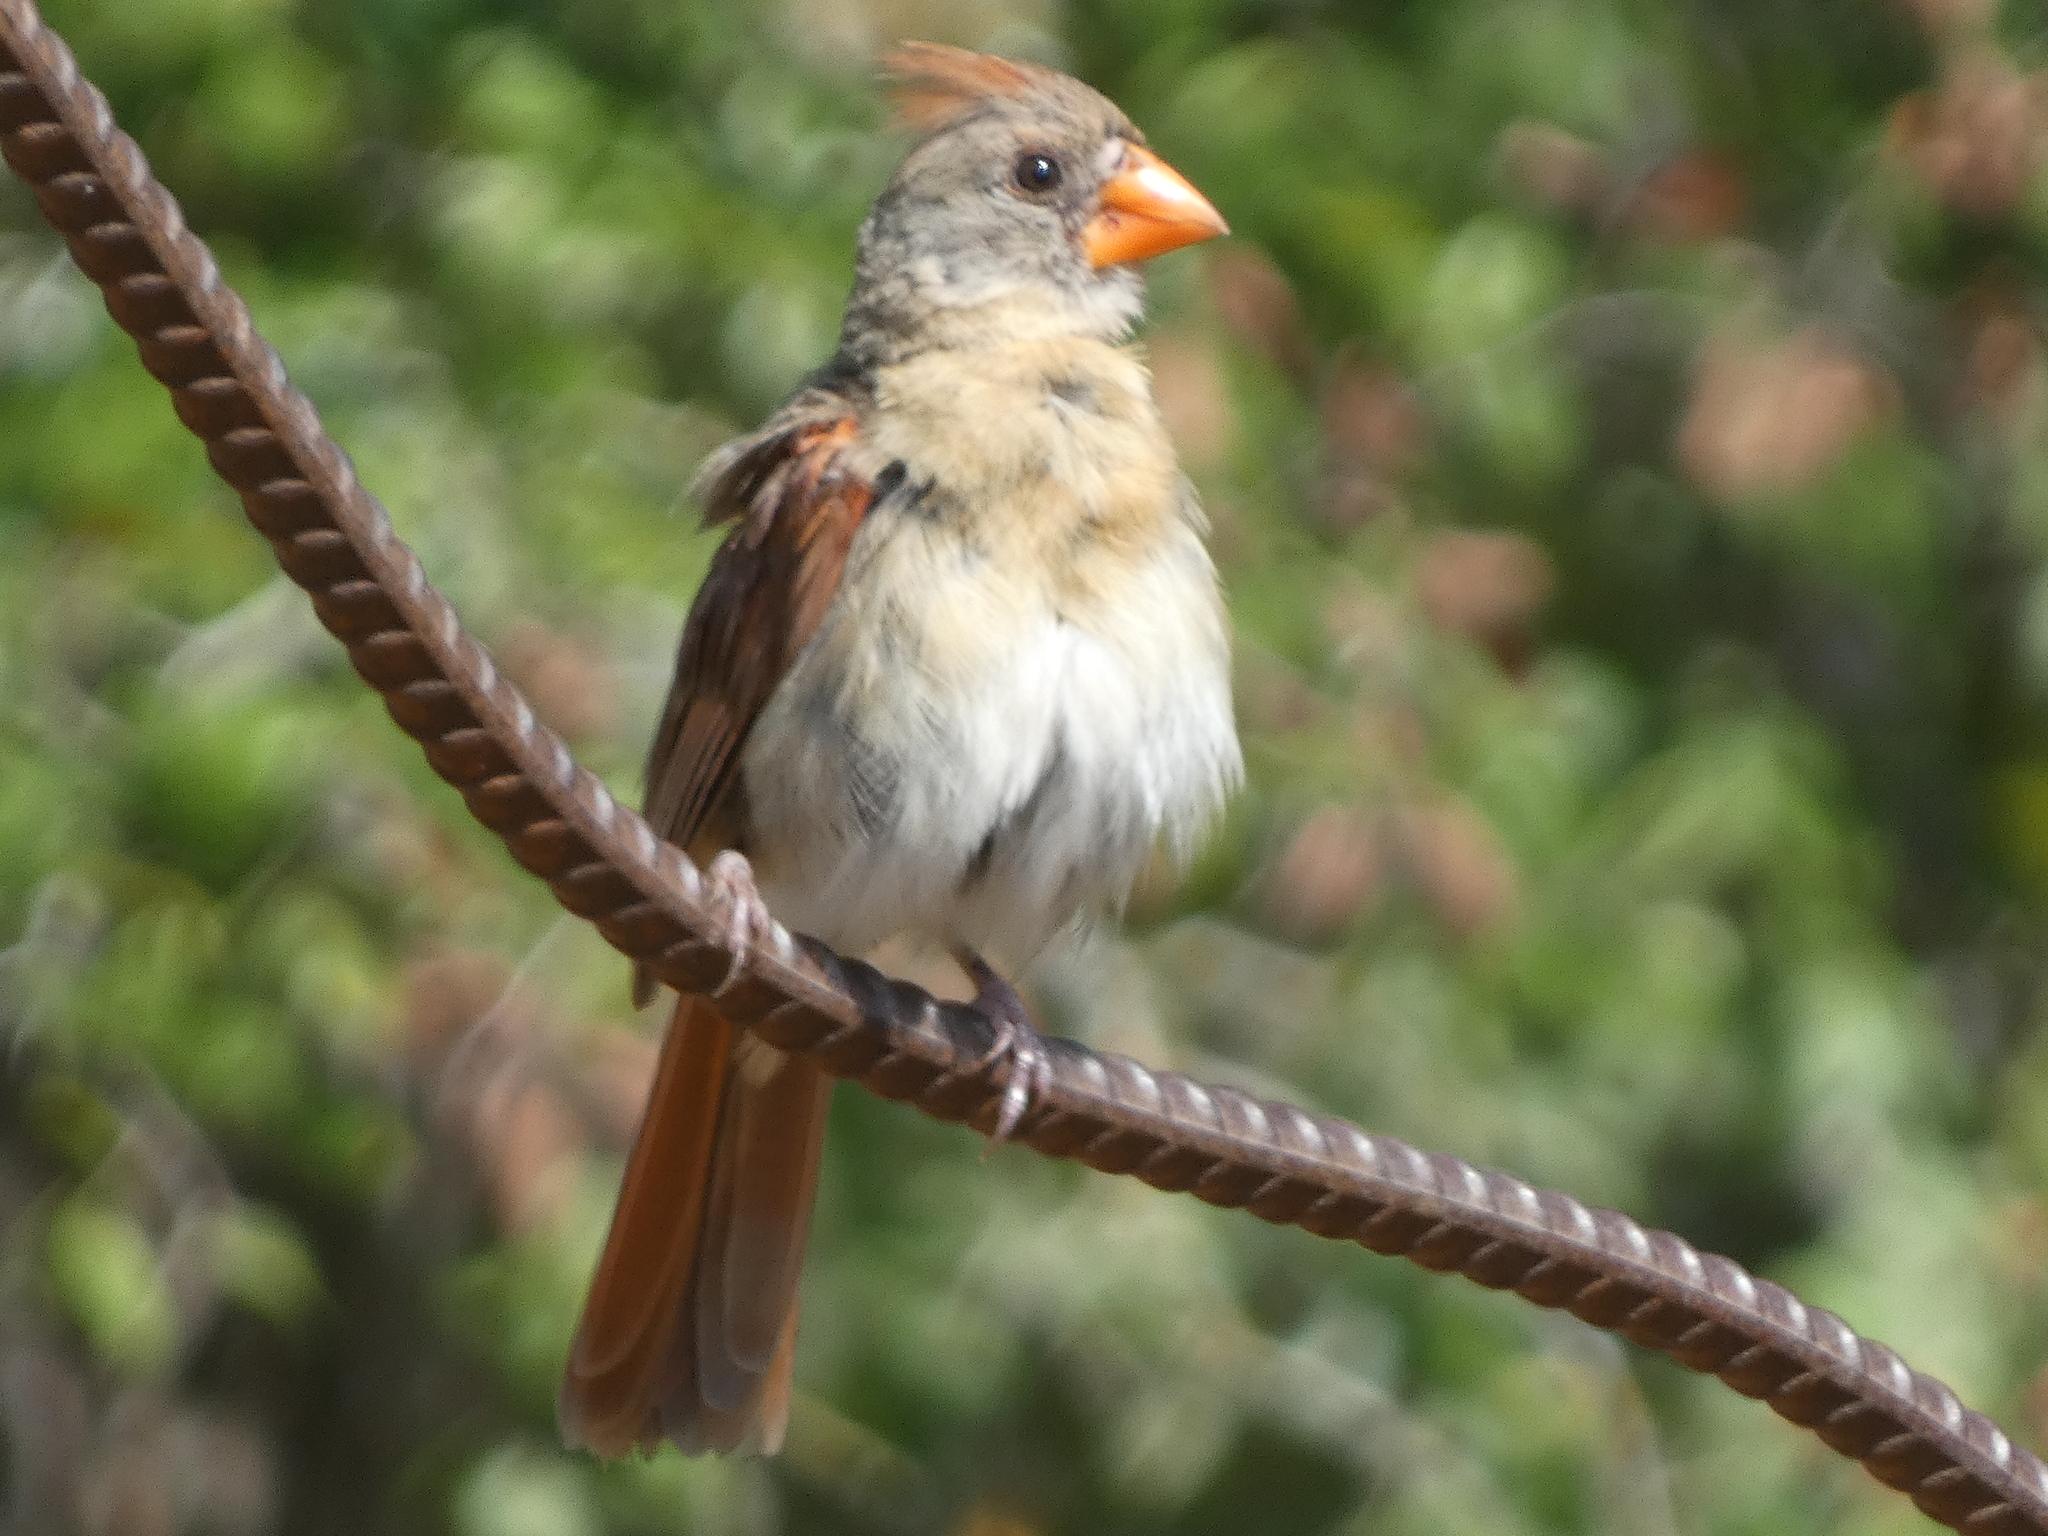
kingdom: Animalia
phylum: Chordata
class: Aves
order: Passeriformes
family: Cardinalidae
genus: Cardinalis
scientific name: Cardinalis cardinalis
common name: Northern cardinal
